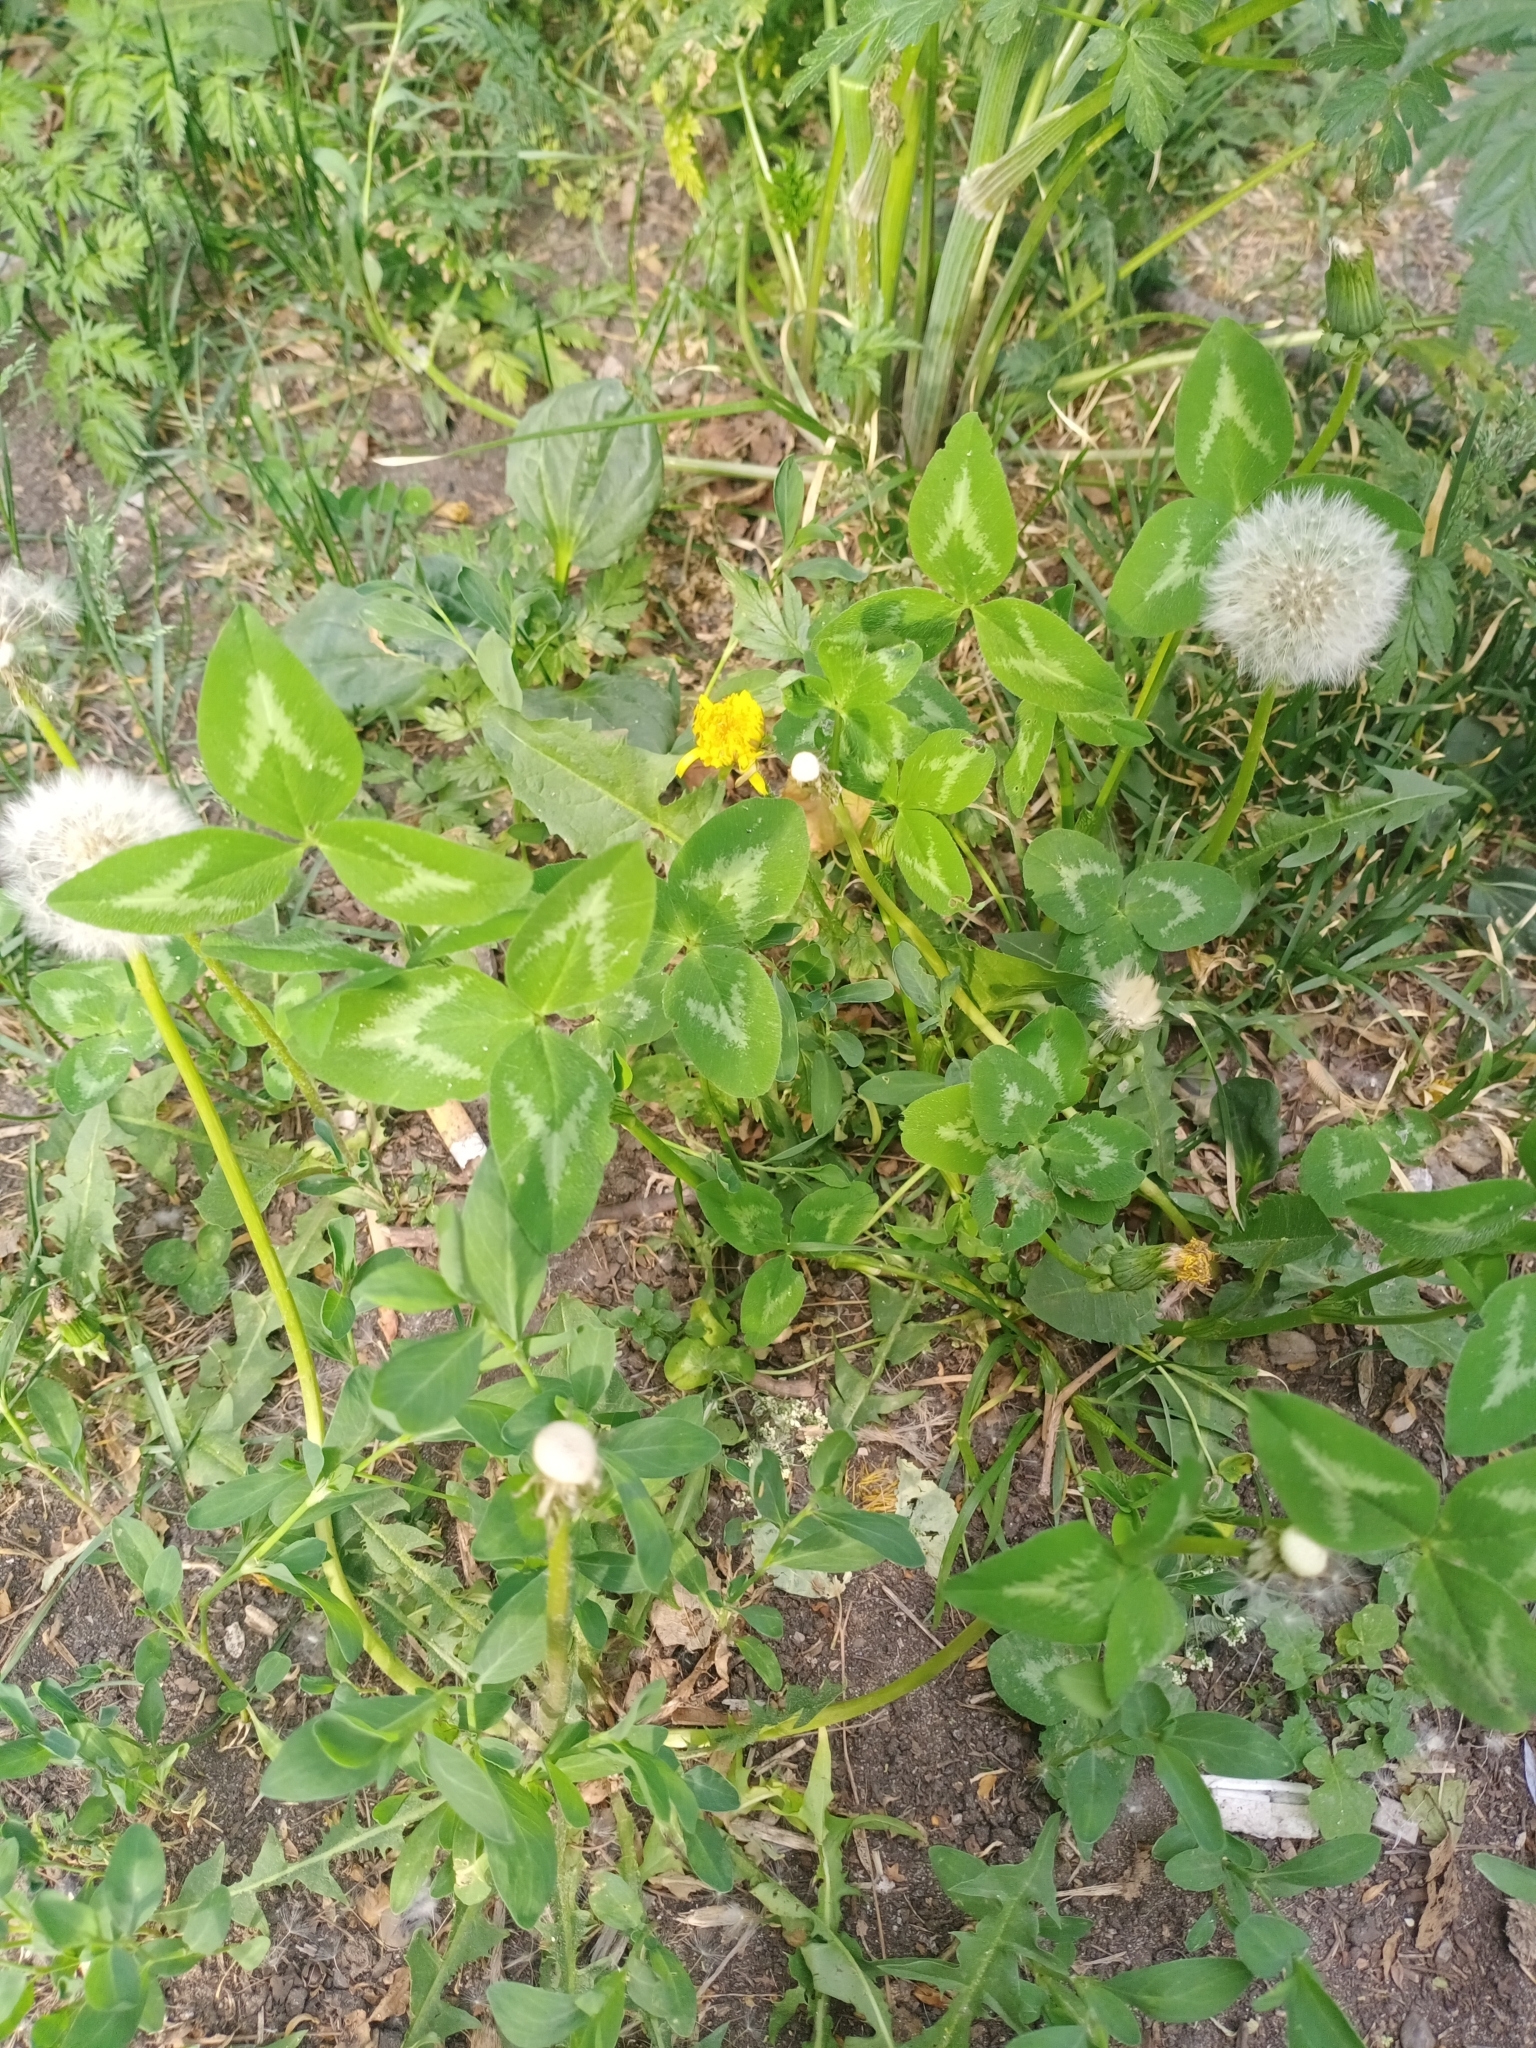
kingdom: Plantae
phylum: Tracheophyta
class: Magnoliopsida
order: Fabales
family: Fabaceae
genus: Trifolium
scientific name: Trifolium pratense
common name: Red clover
